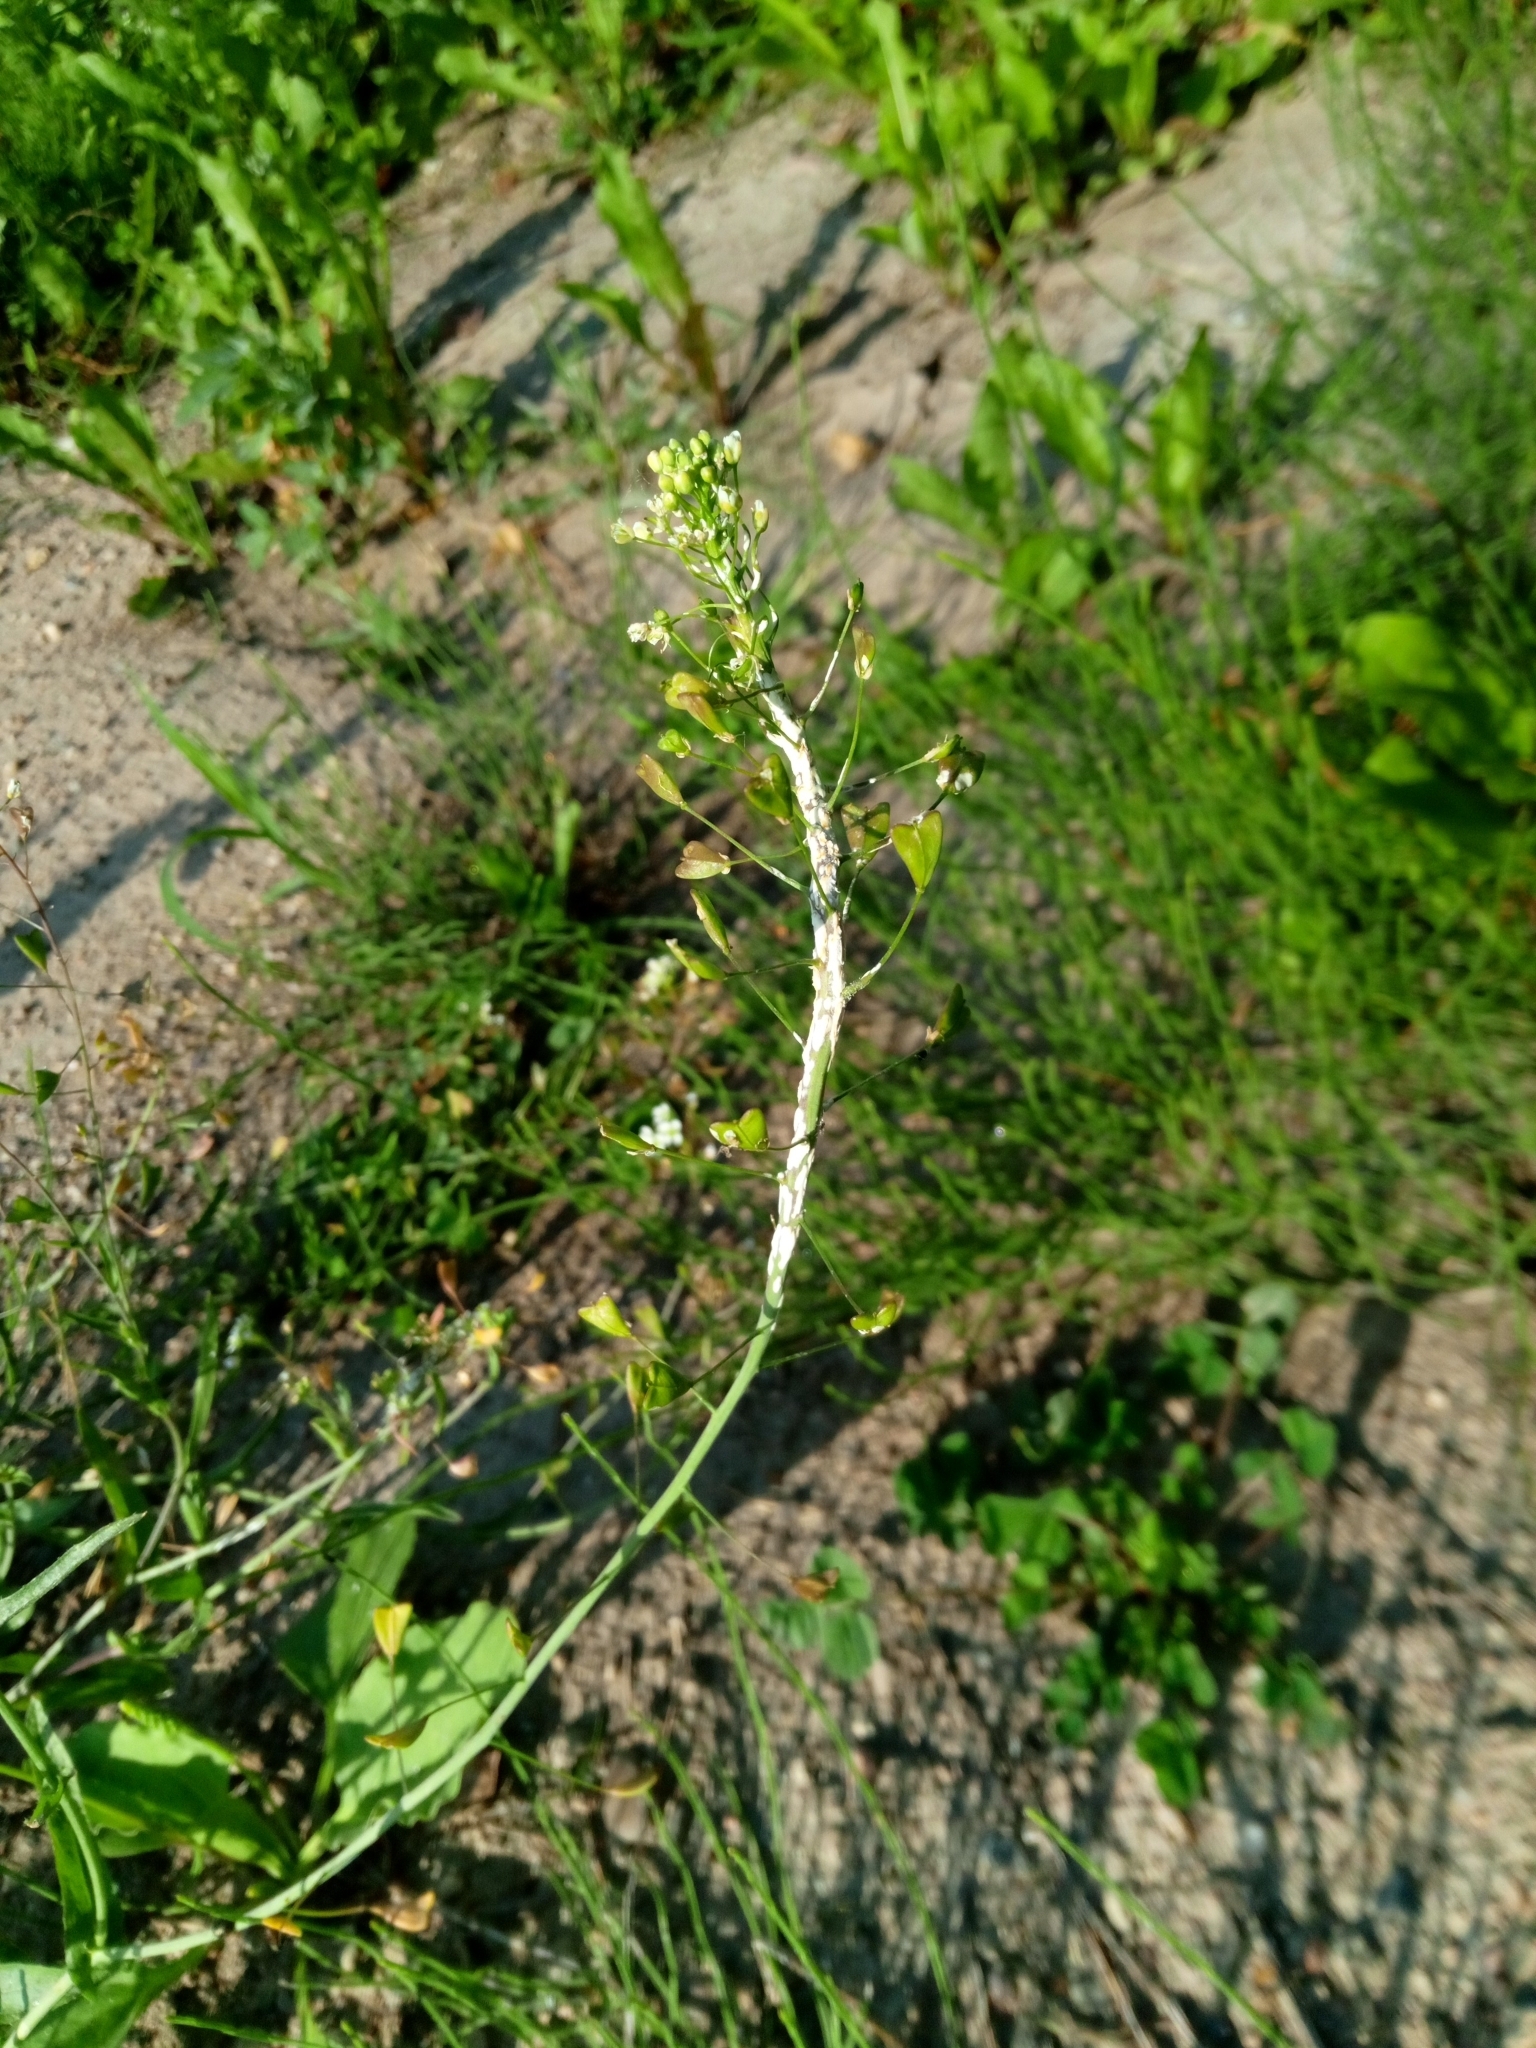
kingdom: Chromista
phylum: Oomycota
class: Peronosporea
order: Albuginales
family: Albuginaceae
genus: Albugo
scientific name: Albugo candida
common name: Crucifer white blister
